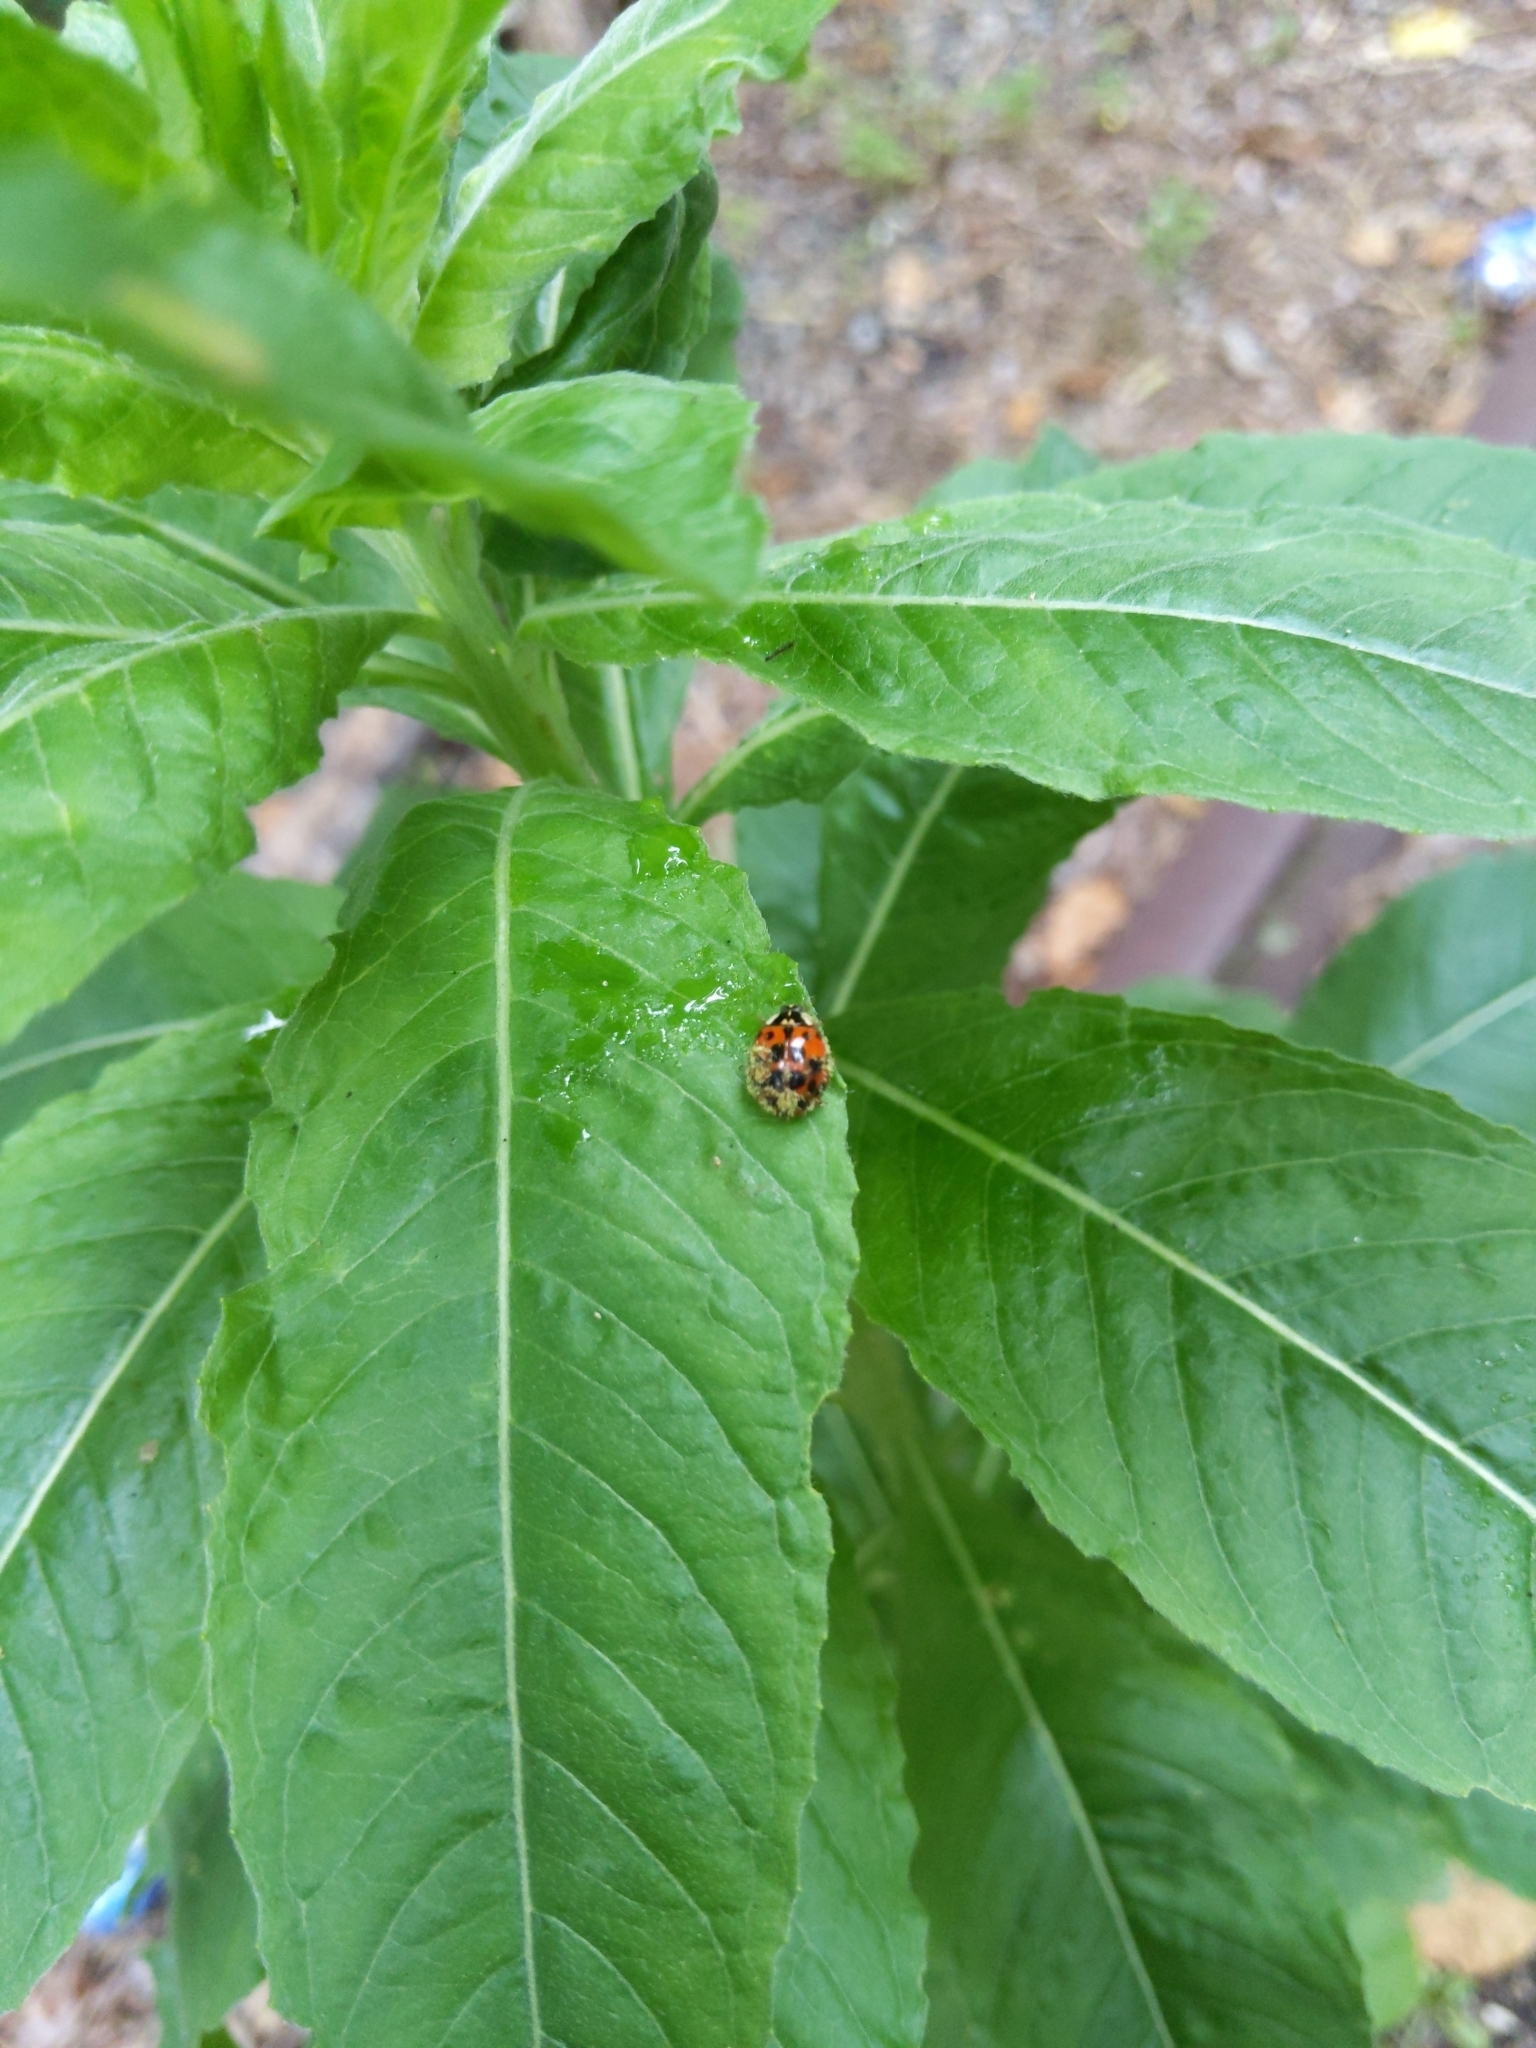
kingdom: Animalia
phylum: Arthropoda
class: Insecta
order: Coleoptera
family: Coccinellidae
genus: Harmonia
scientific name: Harmonia axyridis
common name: Harlequin ladybird
